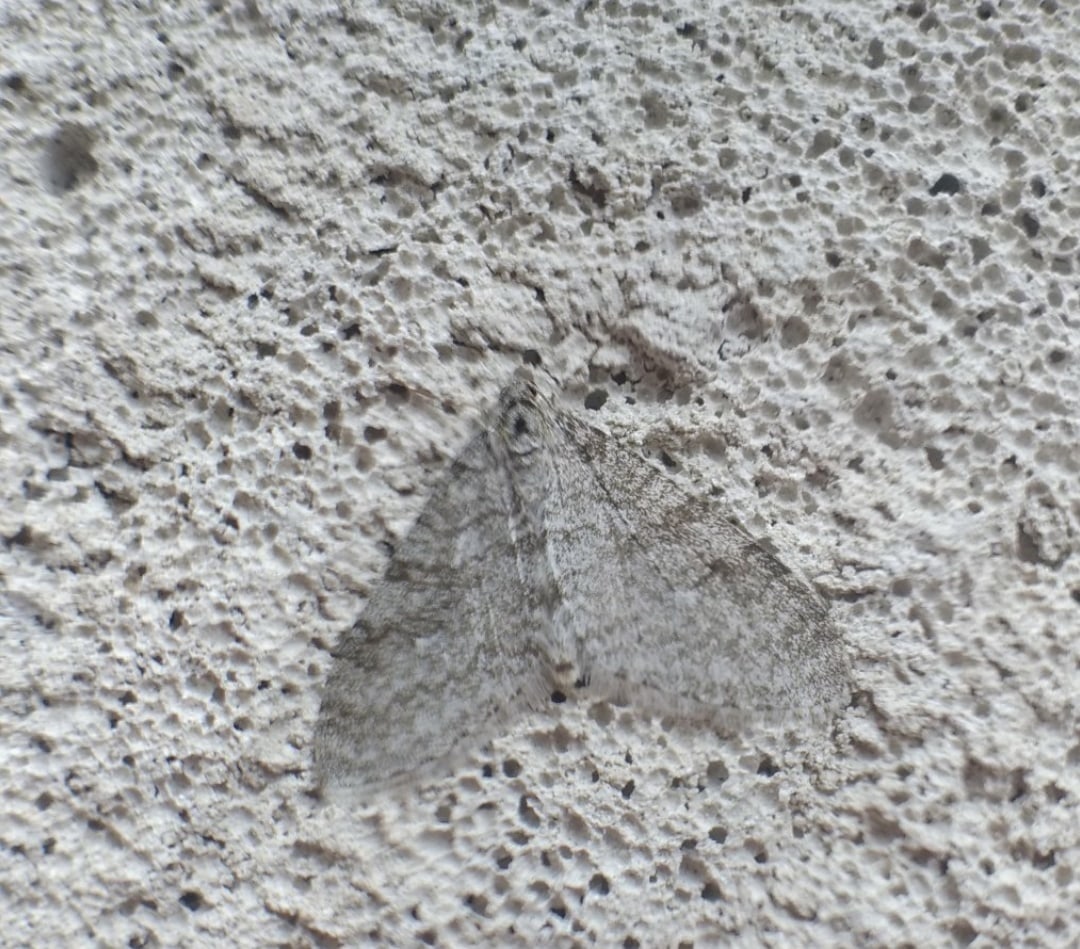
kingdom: Animalia
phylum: Arthropoda
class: Insecta
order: Lepidoptera
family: Geometridae
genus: Trichopteryx
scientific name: Trichopteryx carpinata
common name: Early tooth-striped
